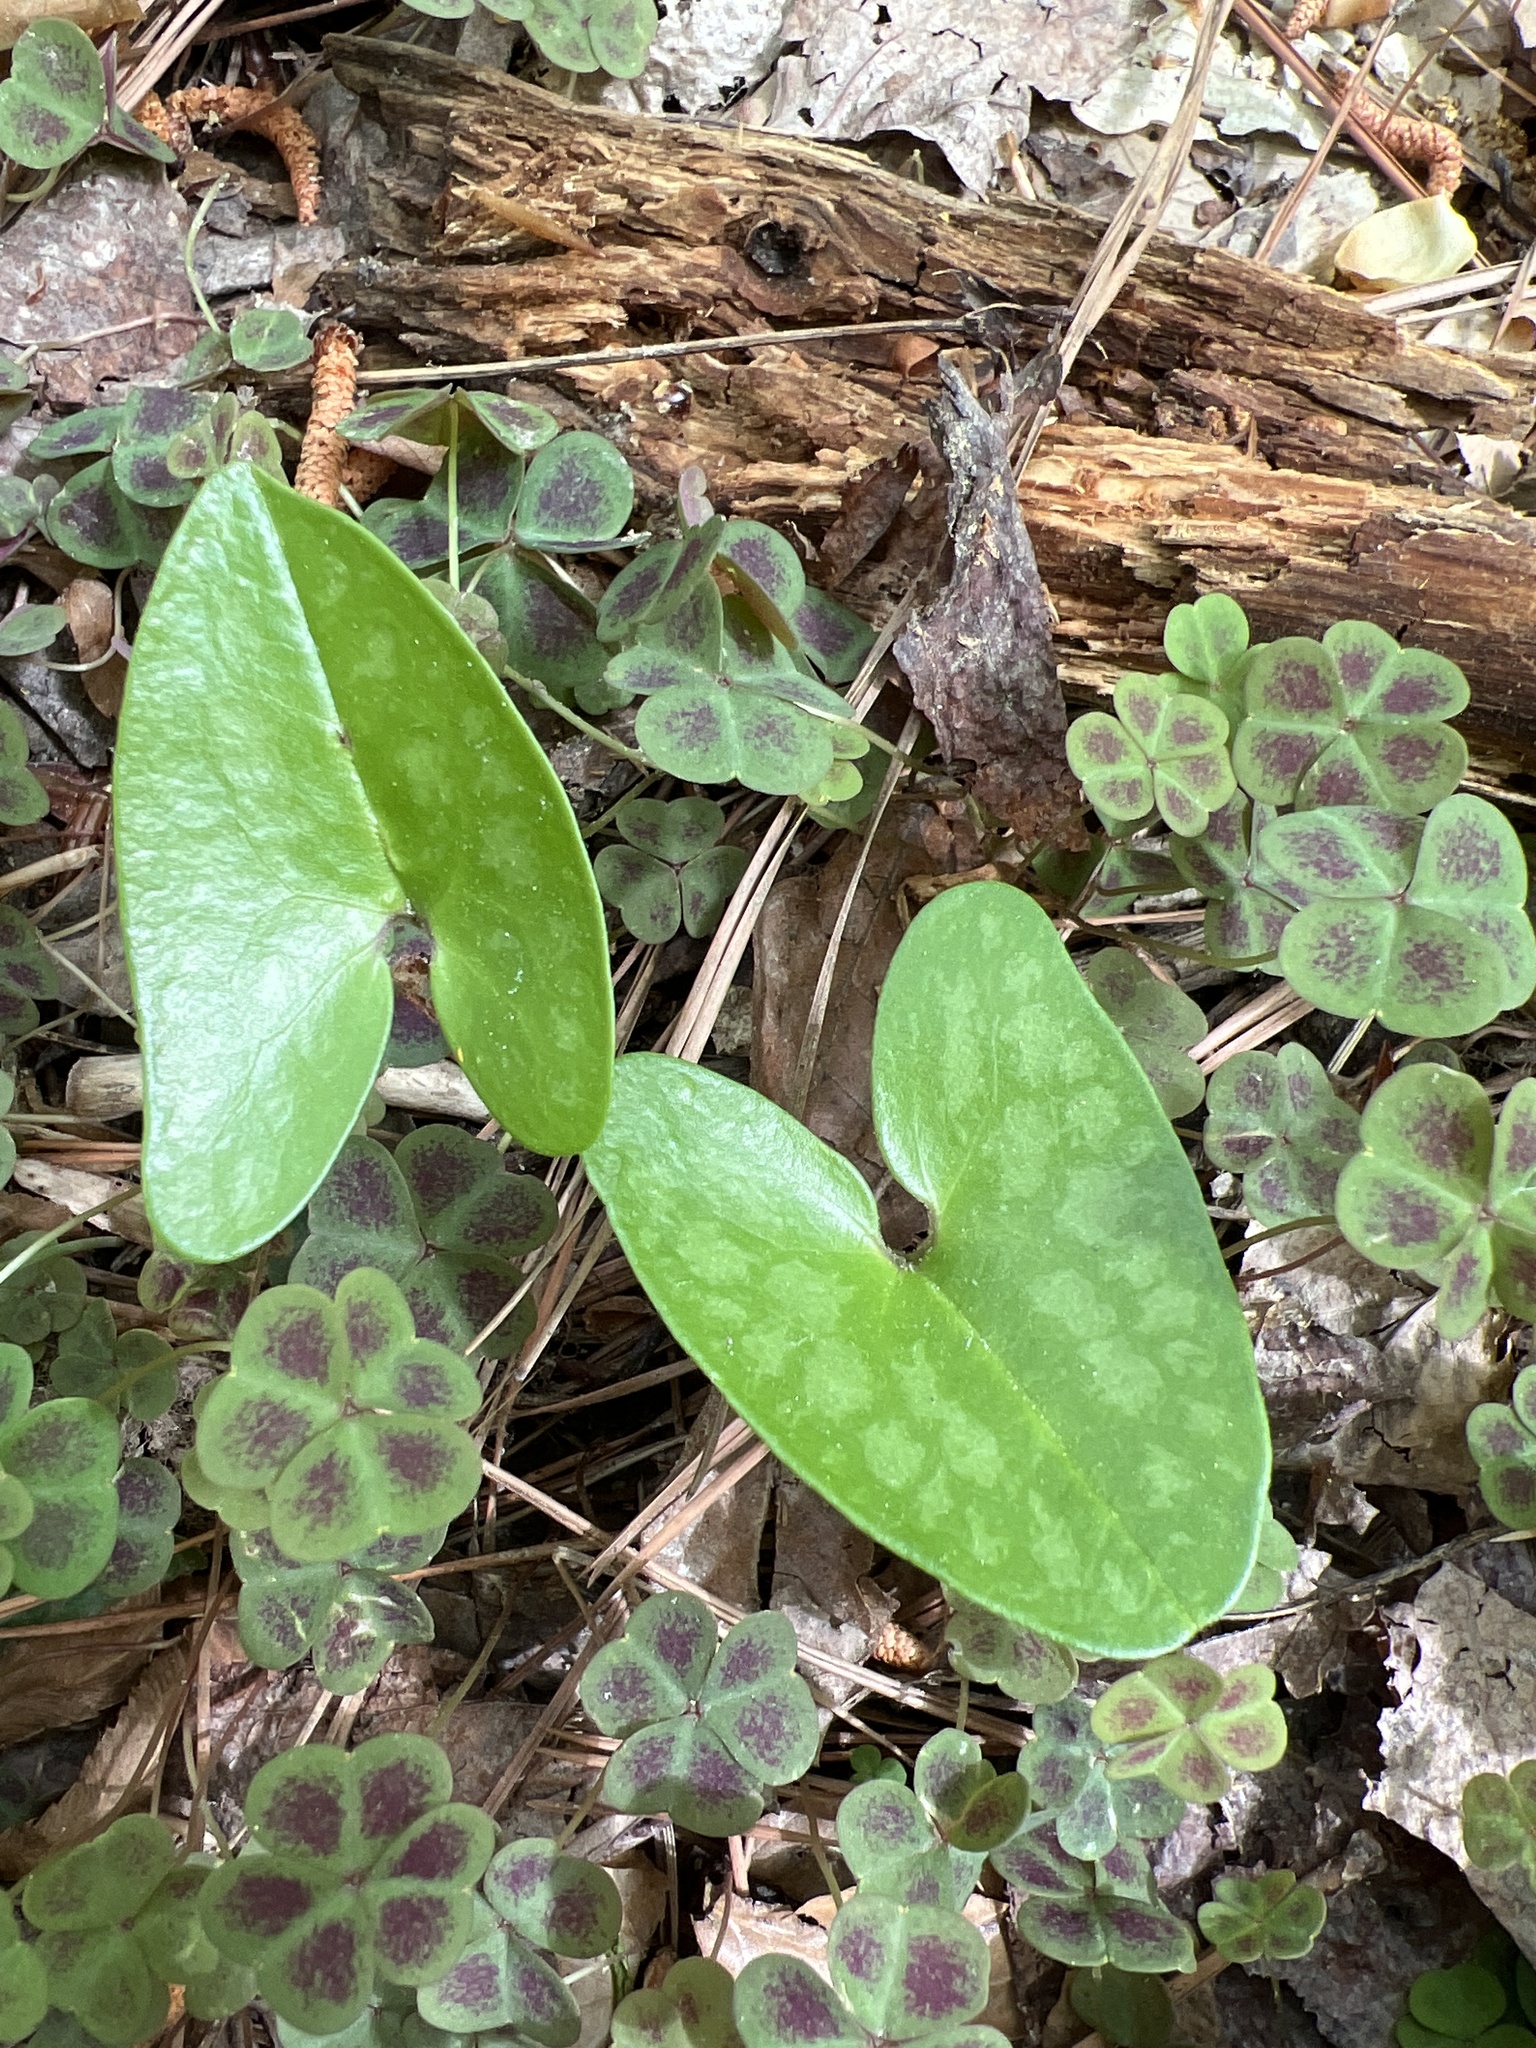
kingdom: Plantae
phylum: Tracheophyta
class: Magnoliopsida
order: Piperales
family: Aristolochiaceae
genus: Hexastylis
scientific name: Hexastylis arifolia
